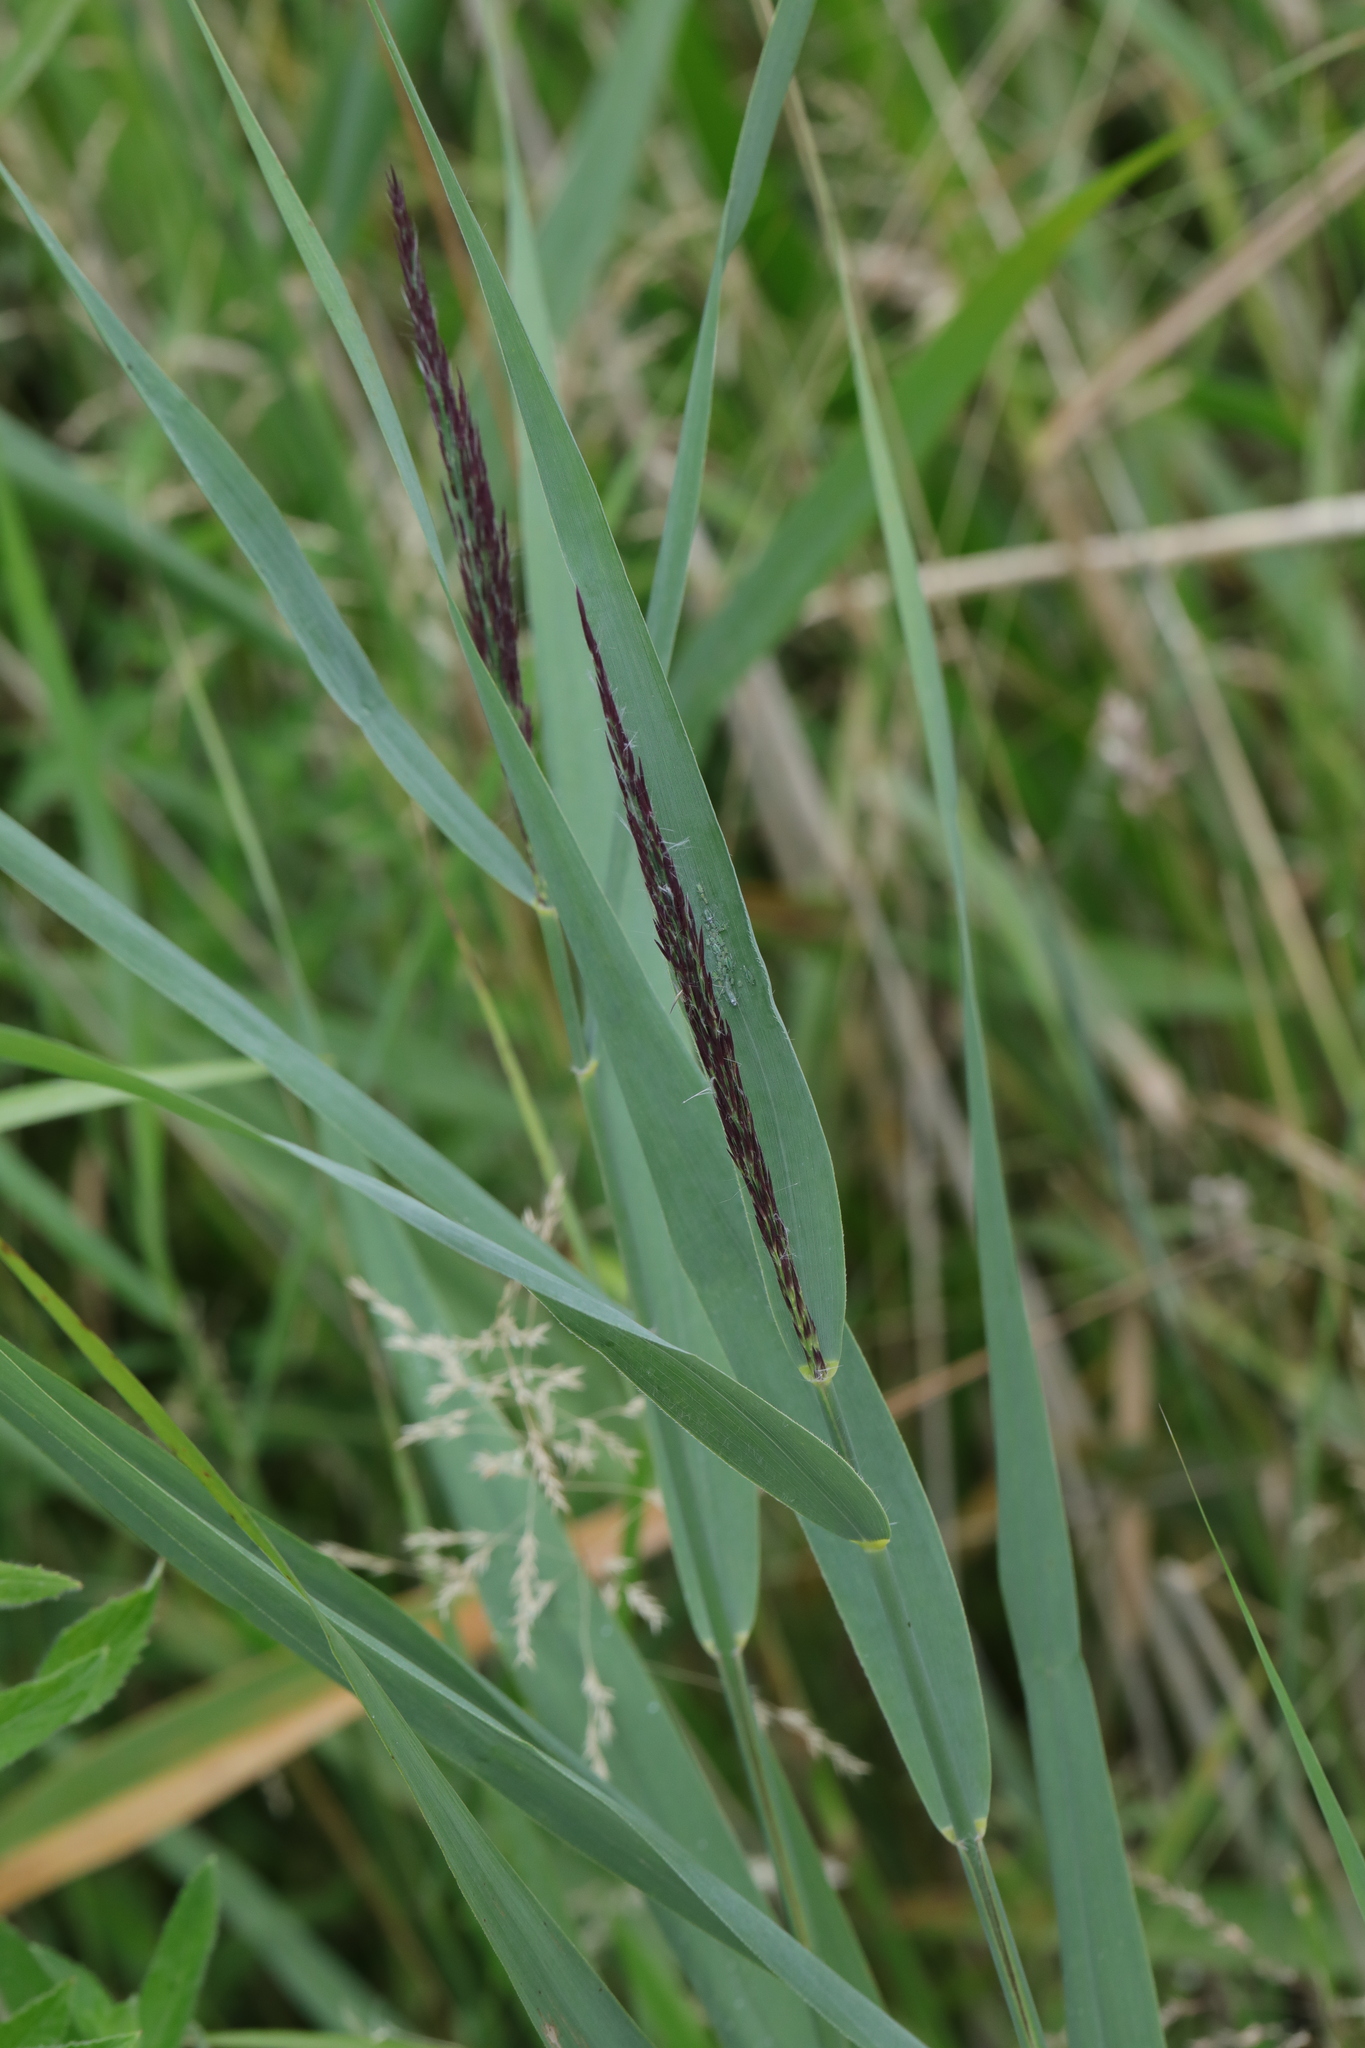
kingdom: Plantae
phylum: Tracheophyta
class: Liliopsida
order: Poales
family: Poaceae
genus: Phragmites
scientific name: Phragmites australis
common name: Common reed
